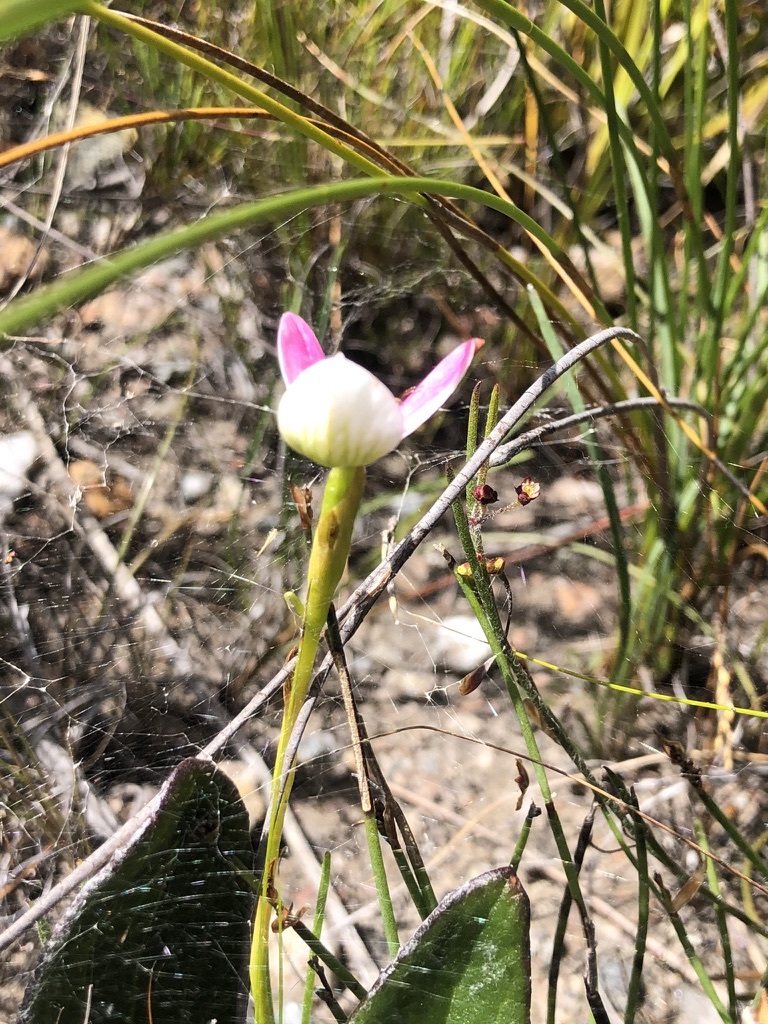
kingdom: Plantae
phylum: Tracheophyta
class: Liliopsida
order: Asparagales
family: Orchidaceae
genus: Disa
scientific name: Disa filicornis
